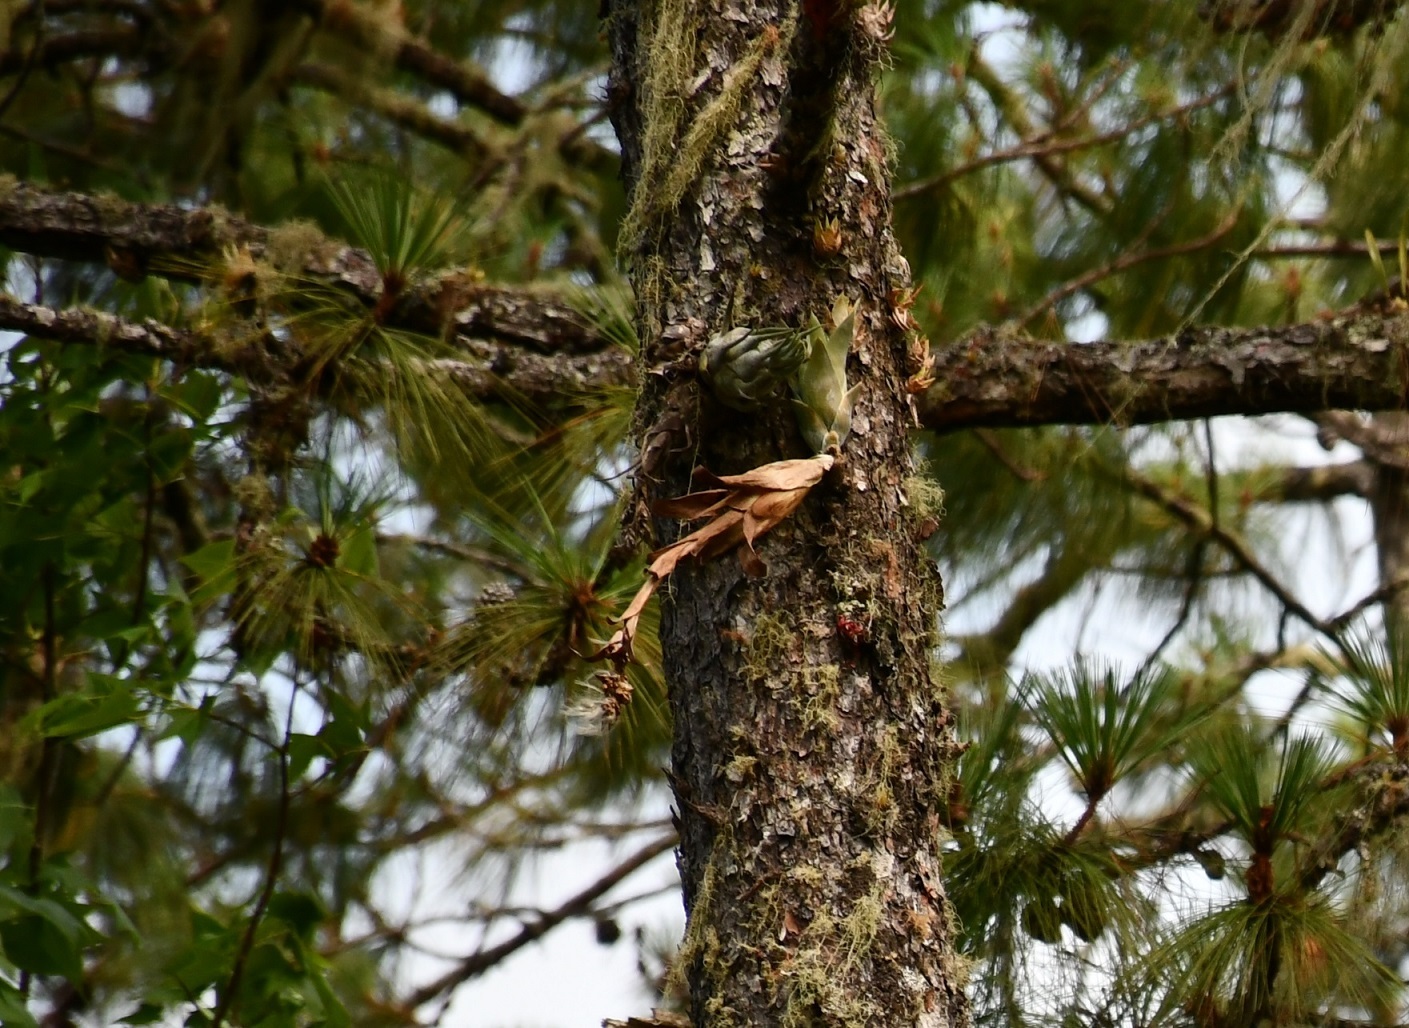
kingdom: Plantae
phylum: Tracheophyta
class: Liliopsida
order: Poales
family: Bromeliaceae
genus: Catopsis
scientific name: Catopsis morreniana
